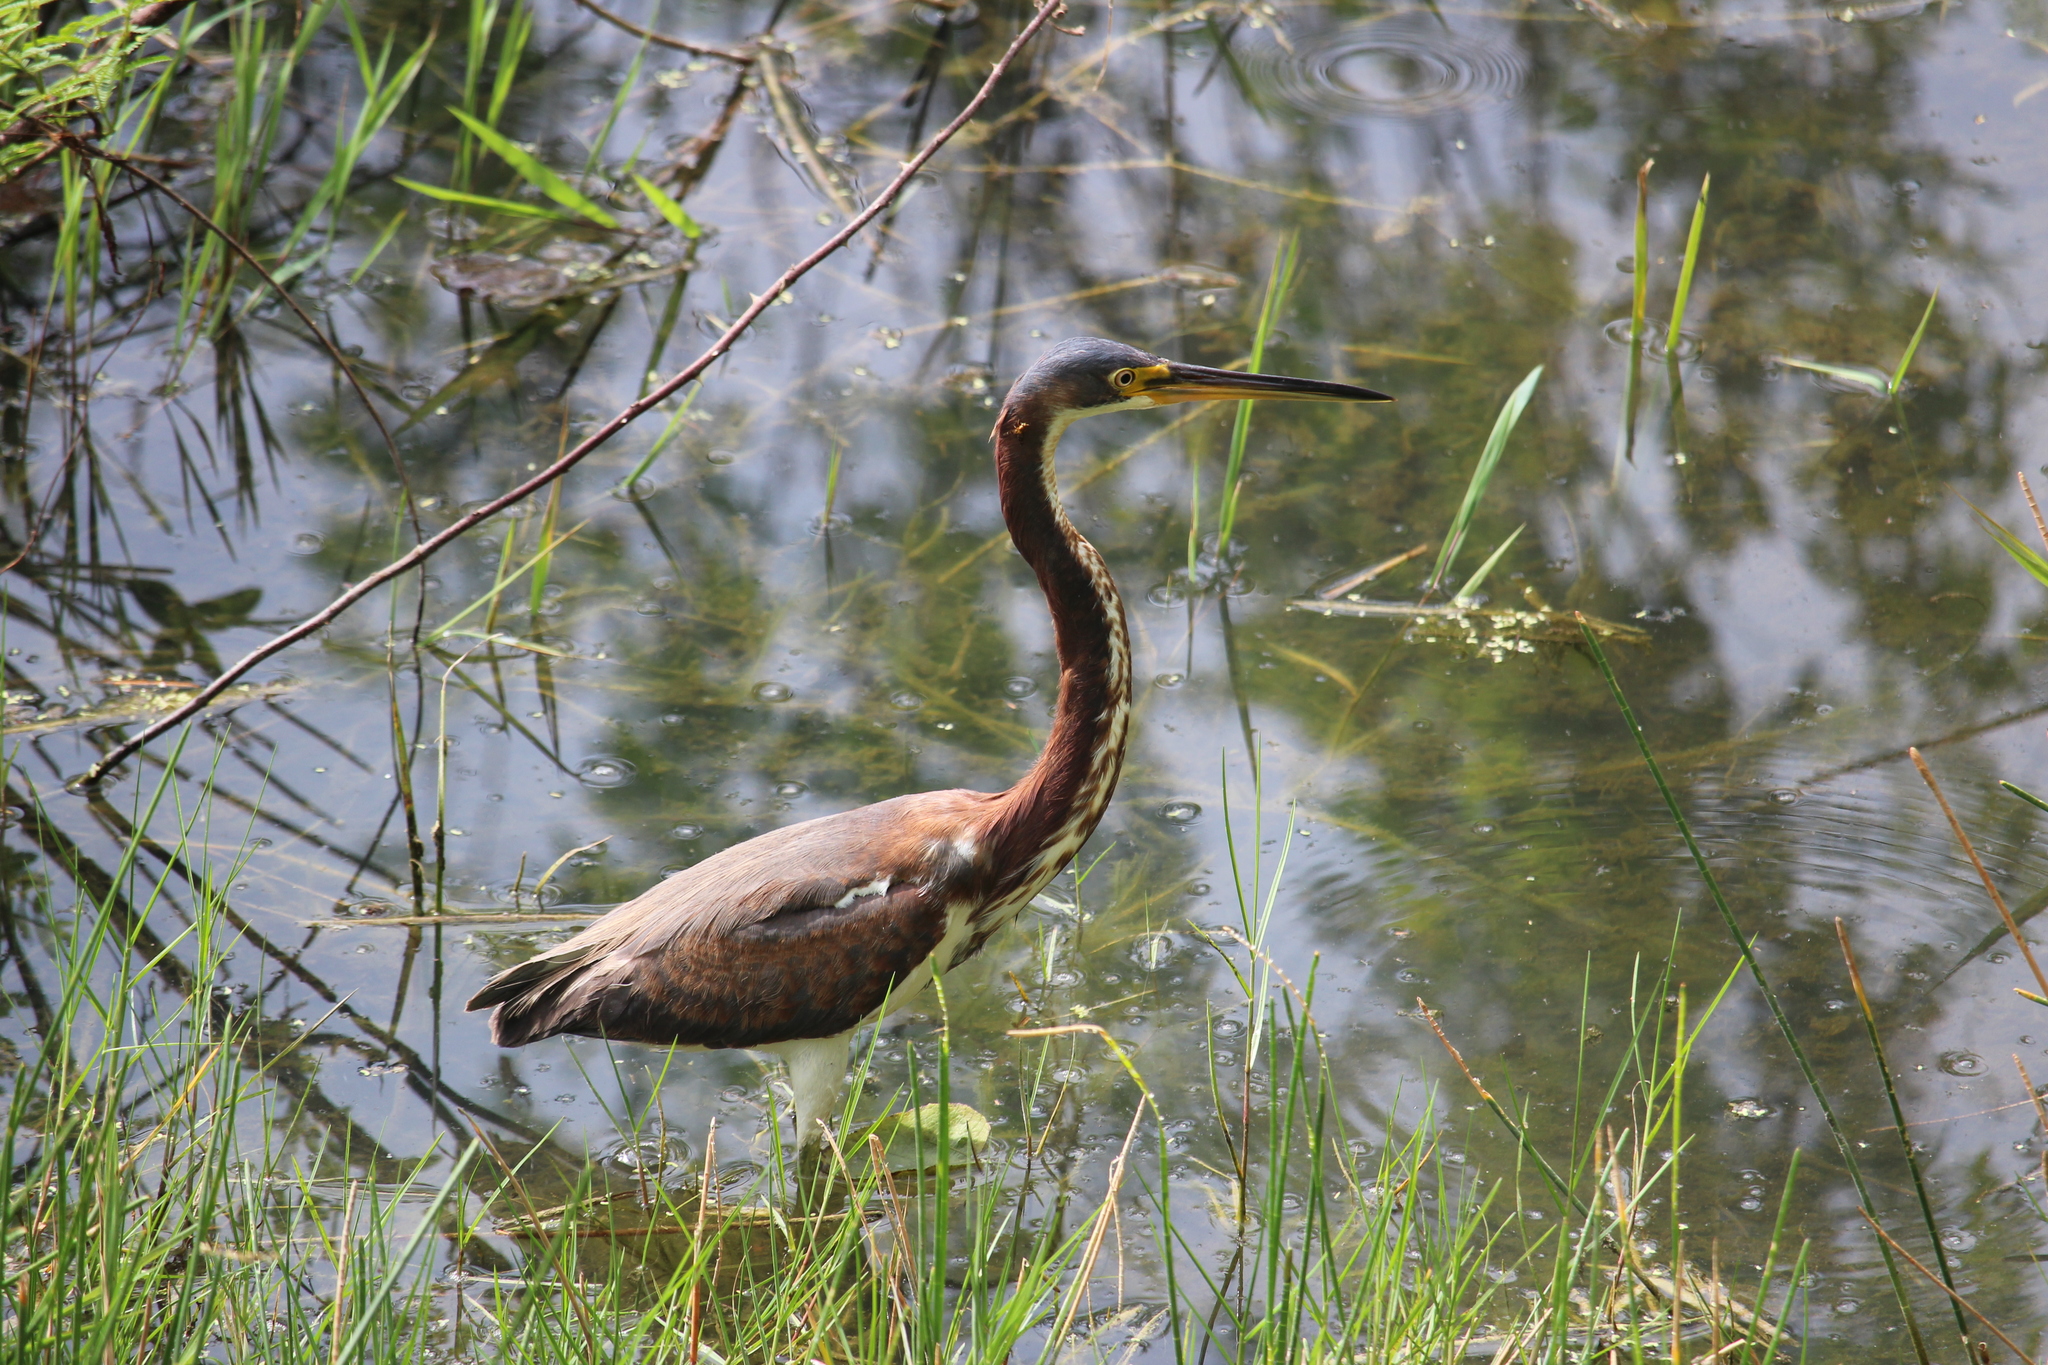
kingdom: Animalia
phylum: Chordata
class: Aves
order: Pelecaniformes
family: Ardeidae
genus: Egretta
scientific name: Egretta tricolor
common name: Tricolored heron
